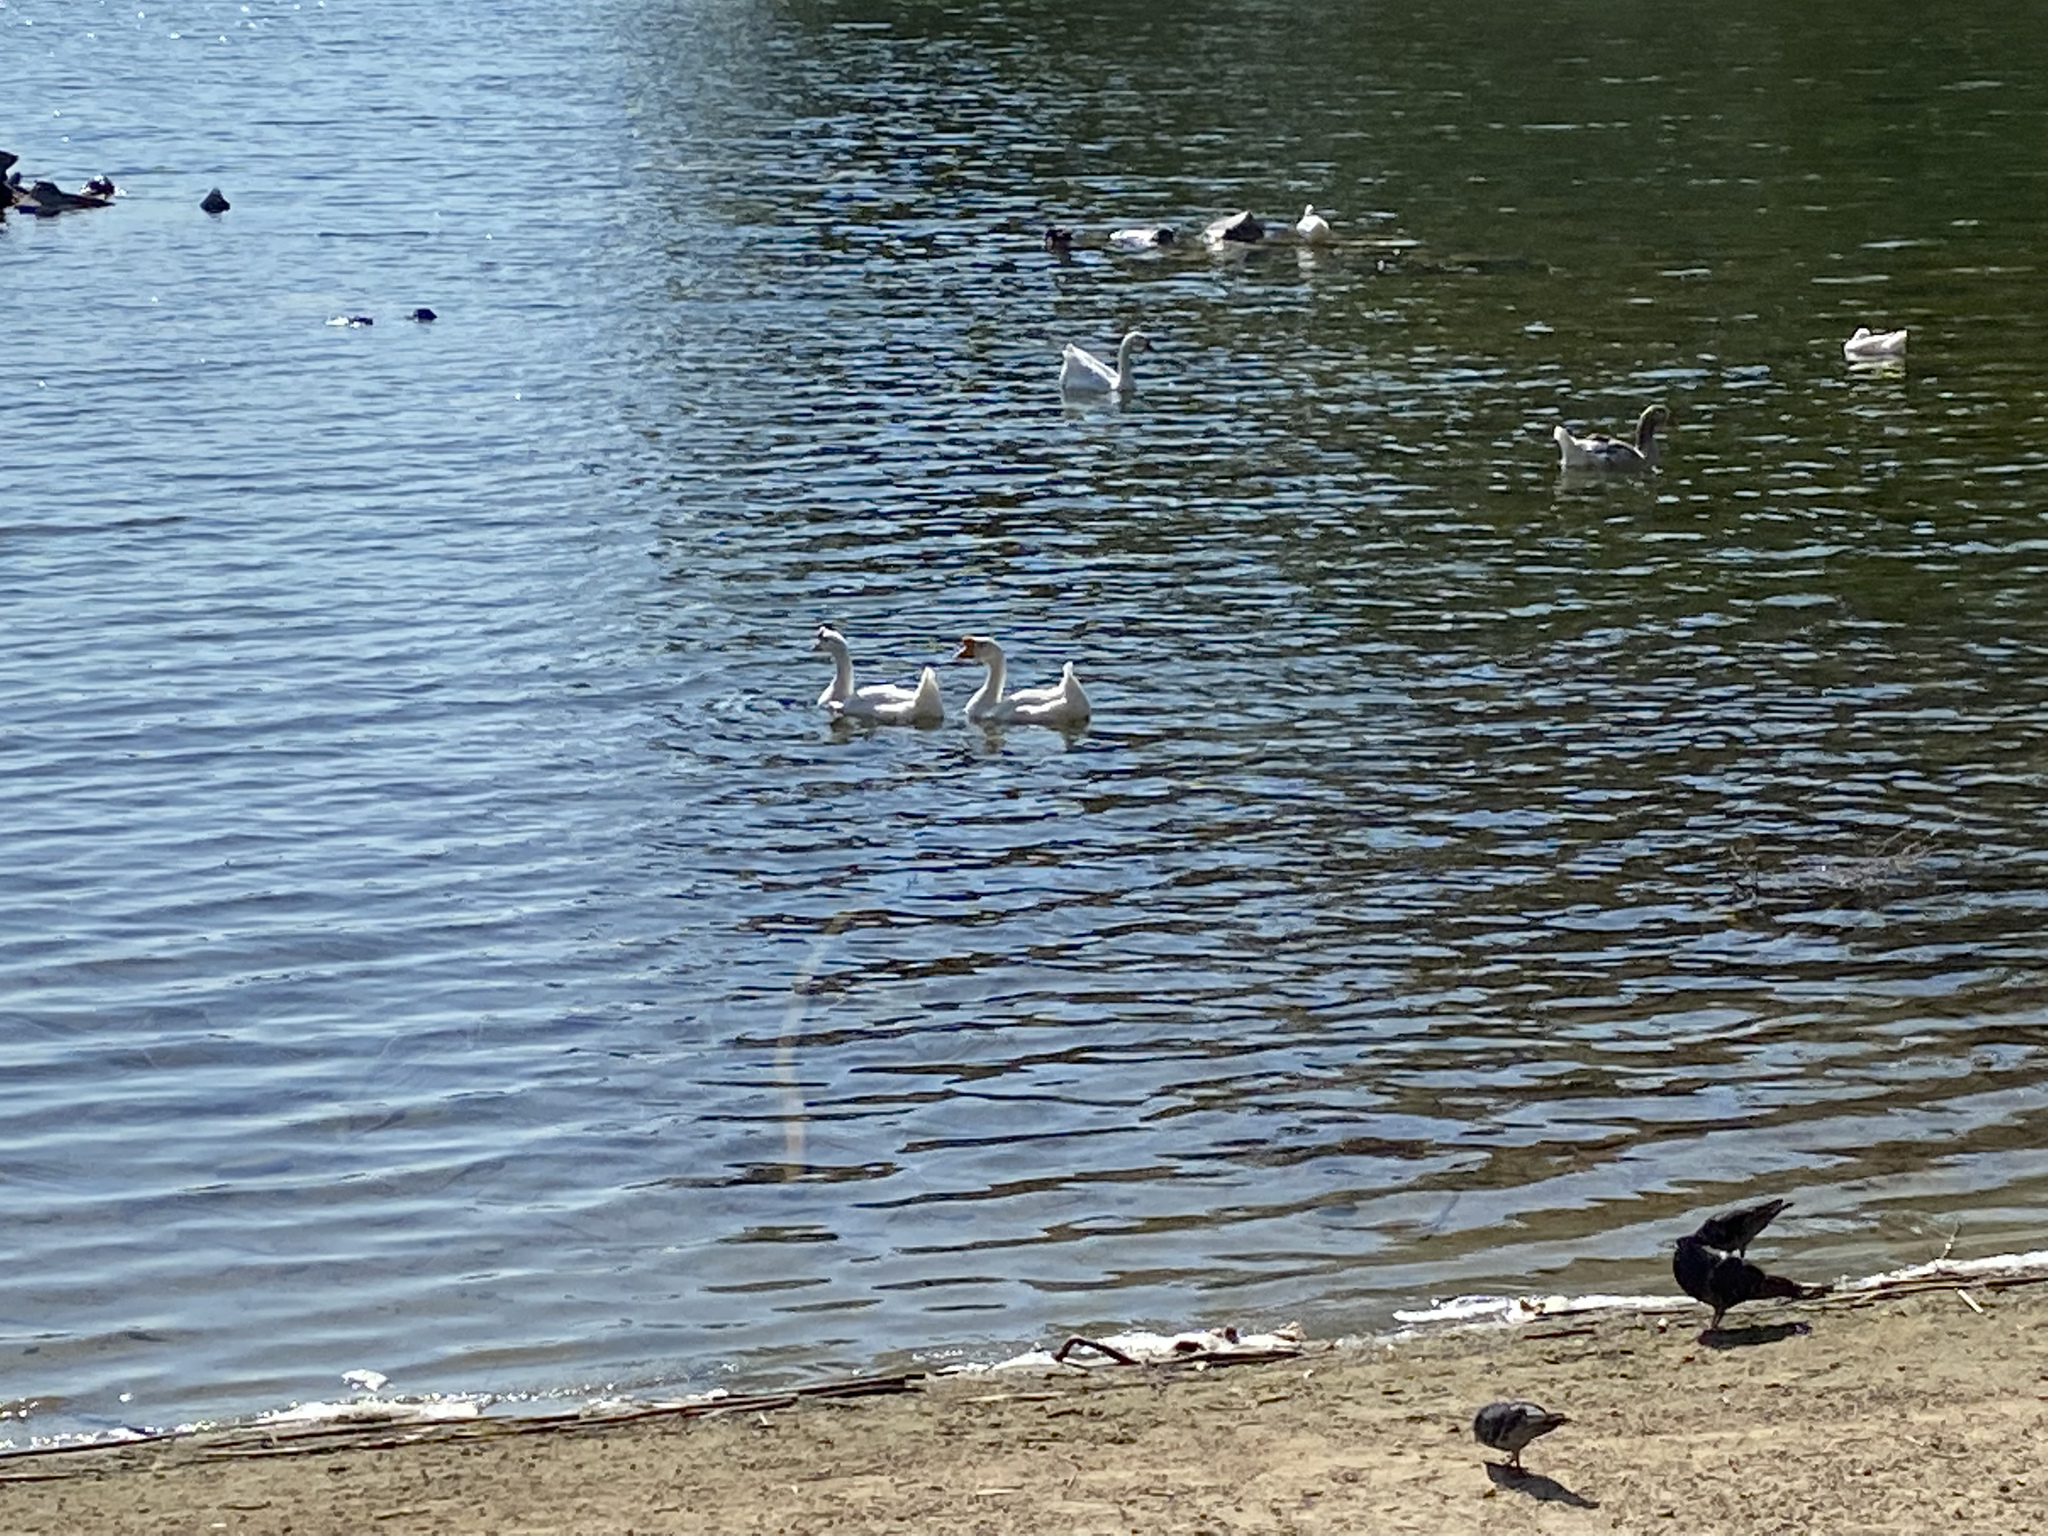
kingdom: Animalia
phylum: Chordata
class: Aves
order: Anseriformes
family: Anatidae
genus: Anser
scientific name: Anser
